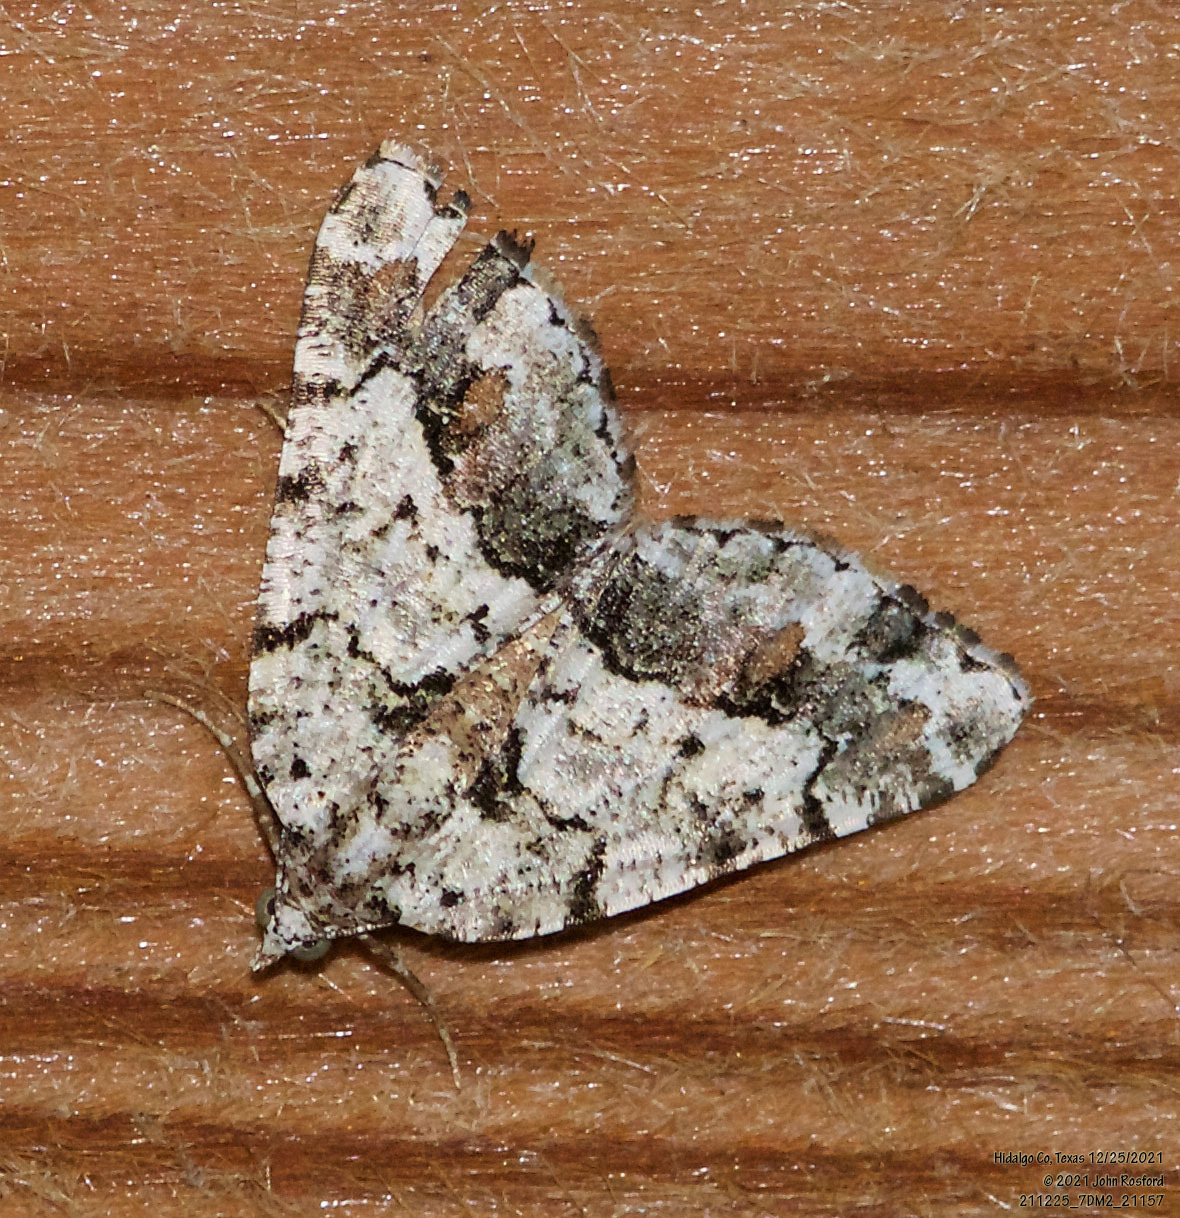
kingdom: Animalia
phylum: Arthropoda
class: Insecta
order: Lepidoptera
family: Geometridae
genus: Macaria
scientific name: Macaria graphidaria
